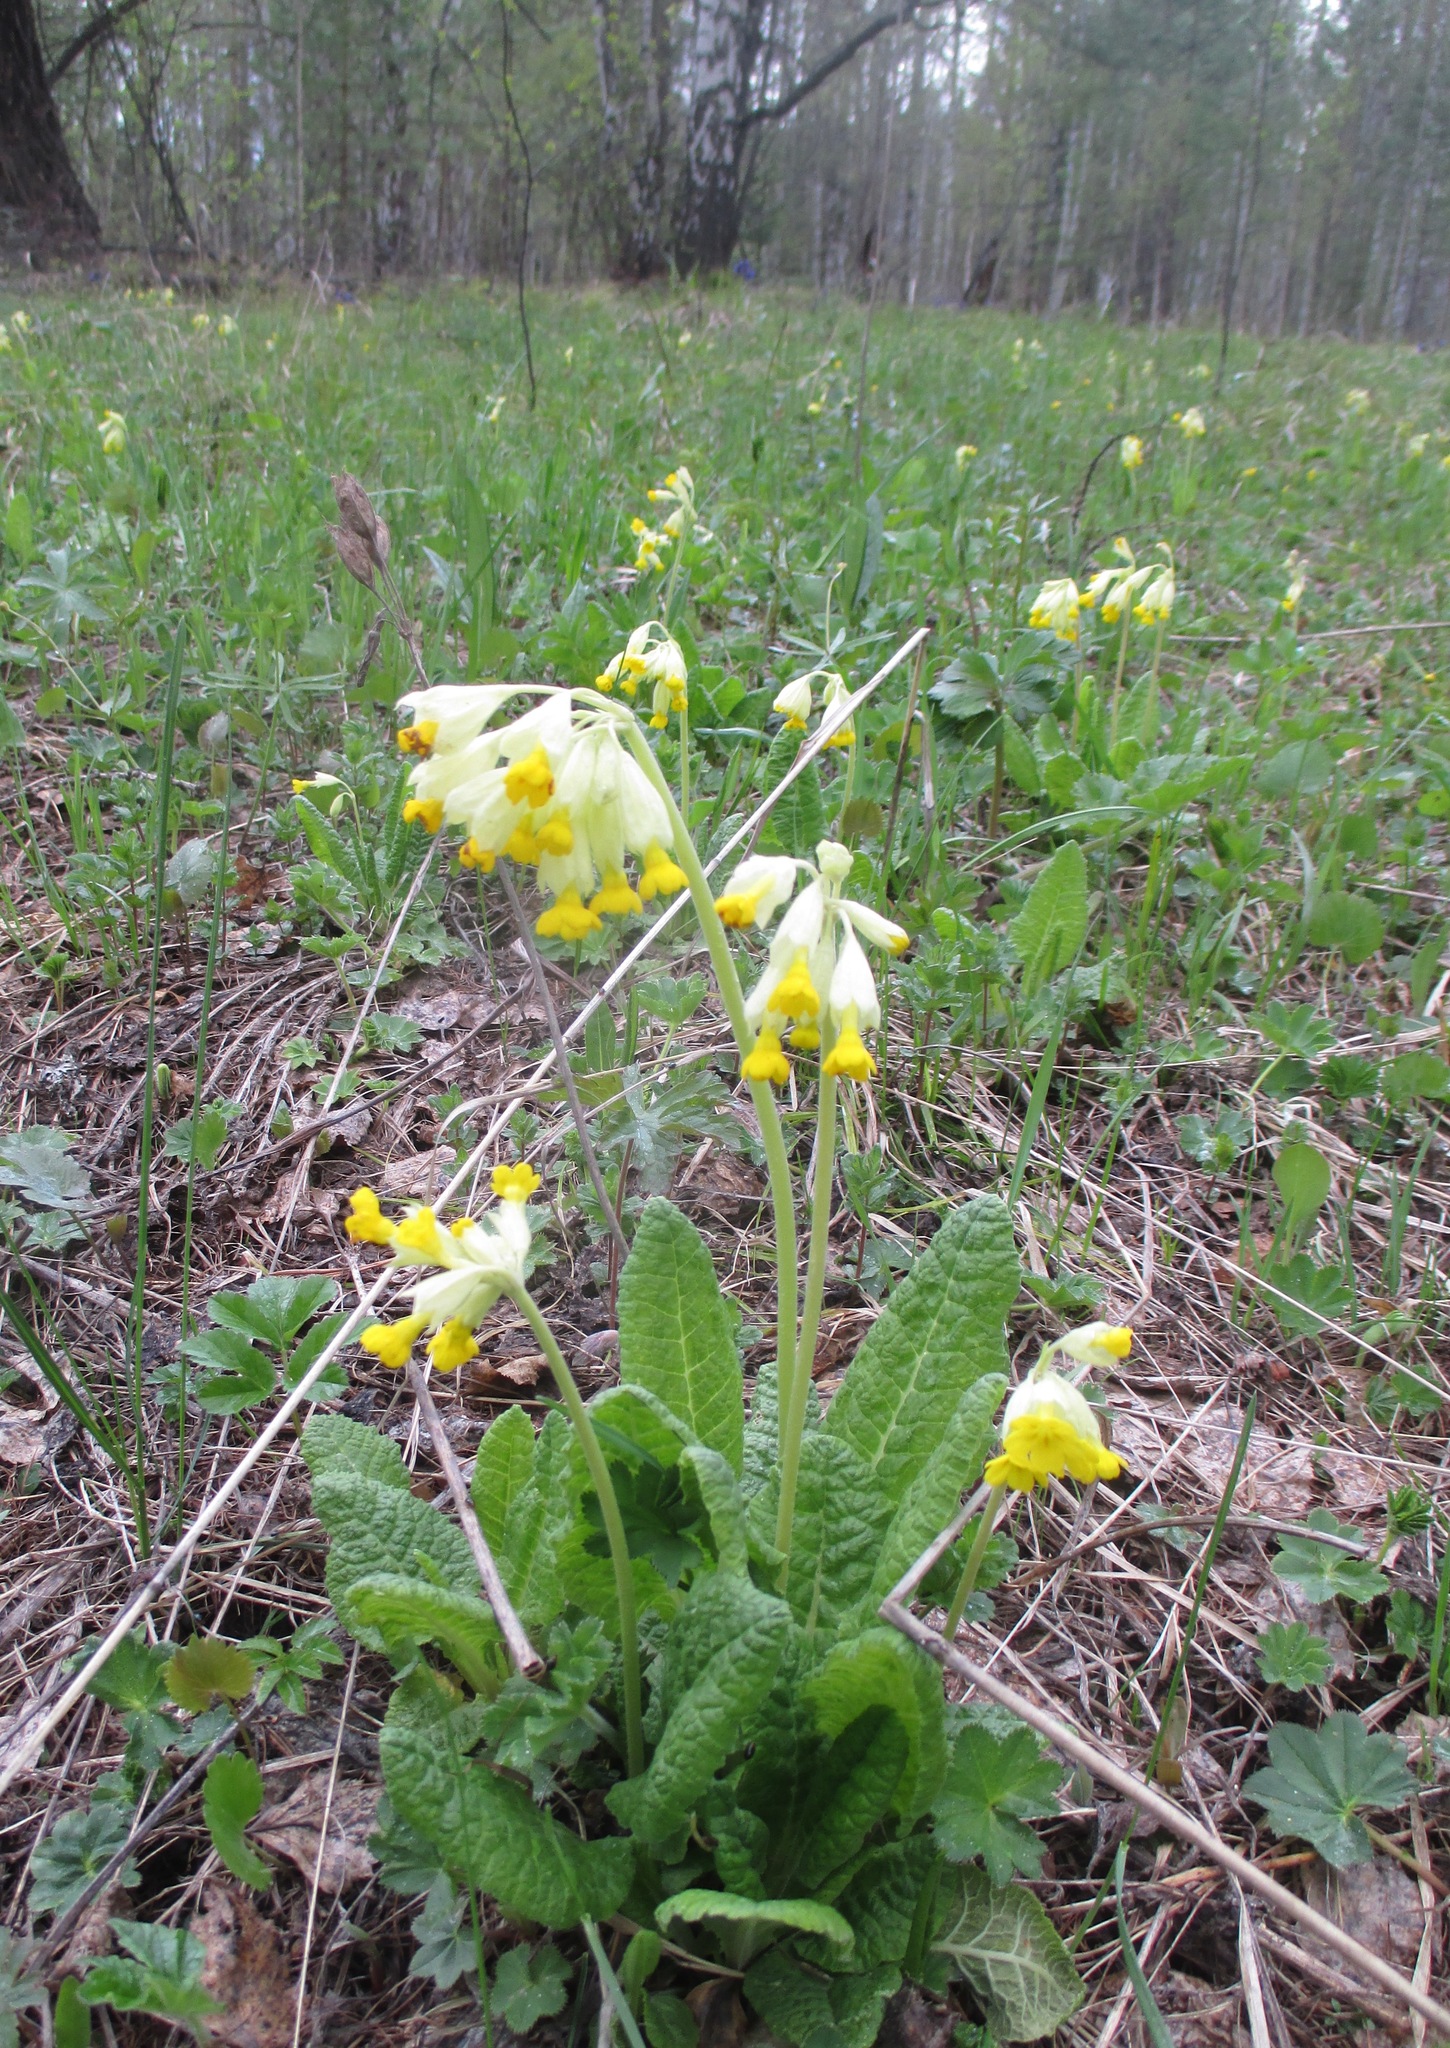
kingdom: Plantae
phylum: Tracheophyta
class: Magnoliopsida
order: Ericales
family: Primulaceae
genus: Primula
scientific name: Primula veris
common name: Cowslip
